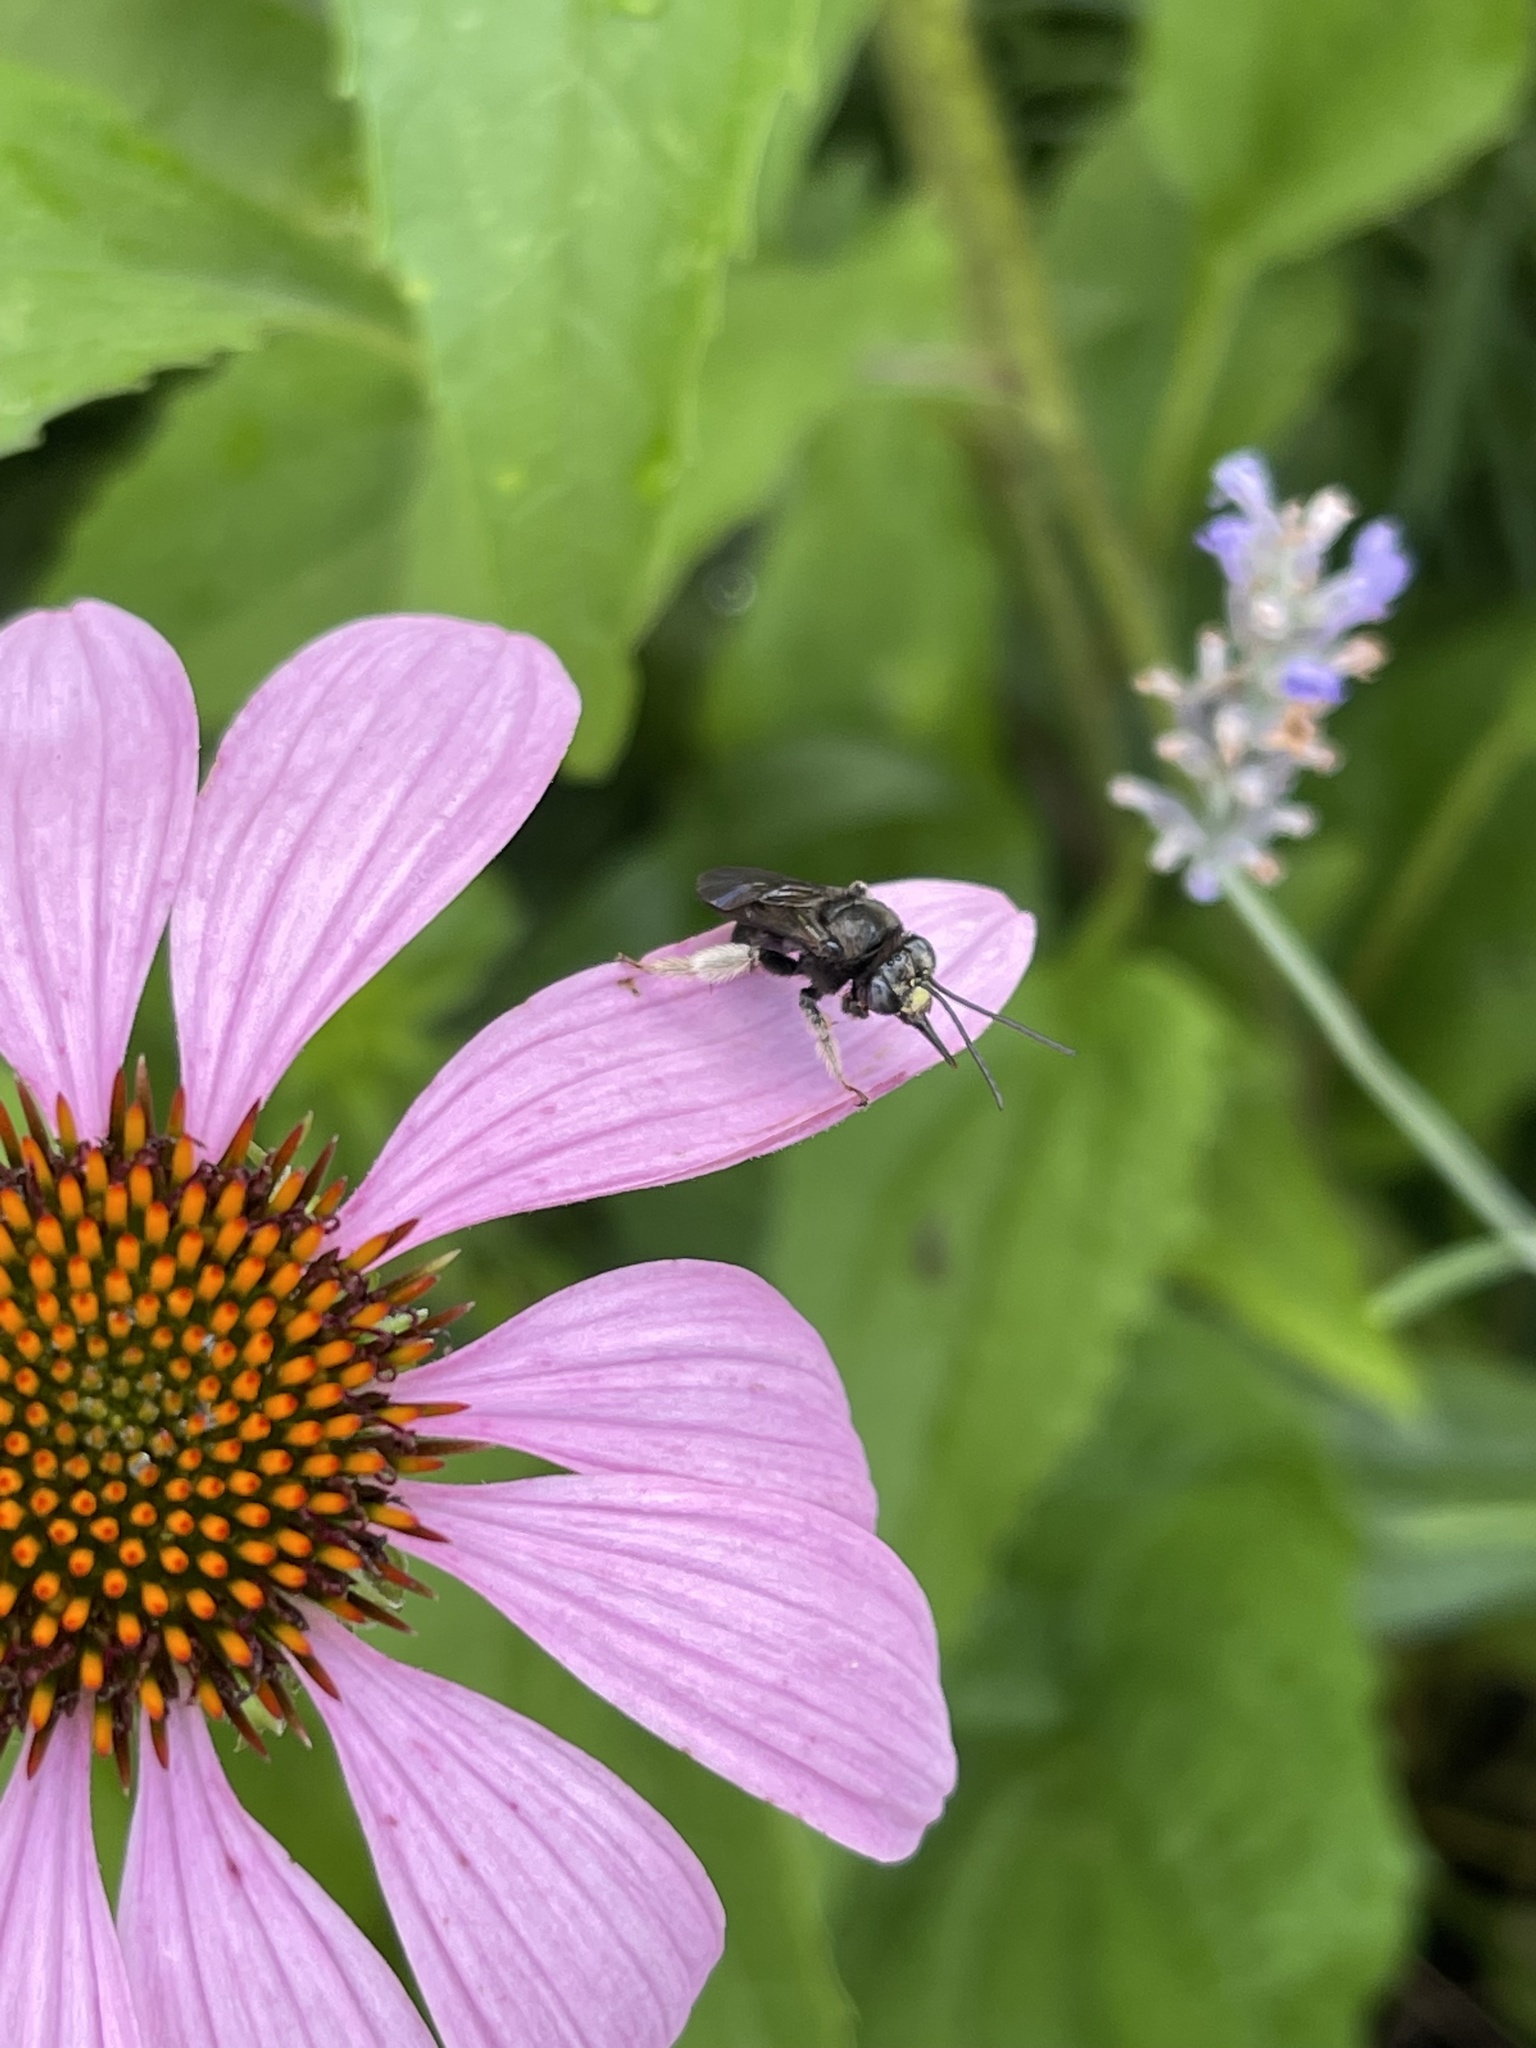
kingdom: Animalia
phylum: Arthropoda
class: Insecta
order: Hymenoptera
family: Apidae
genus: Melissodes
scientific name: Melissodes bimaculatus
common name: Two-spotted long-horned bee
